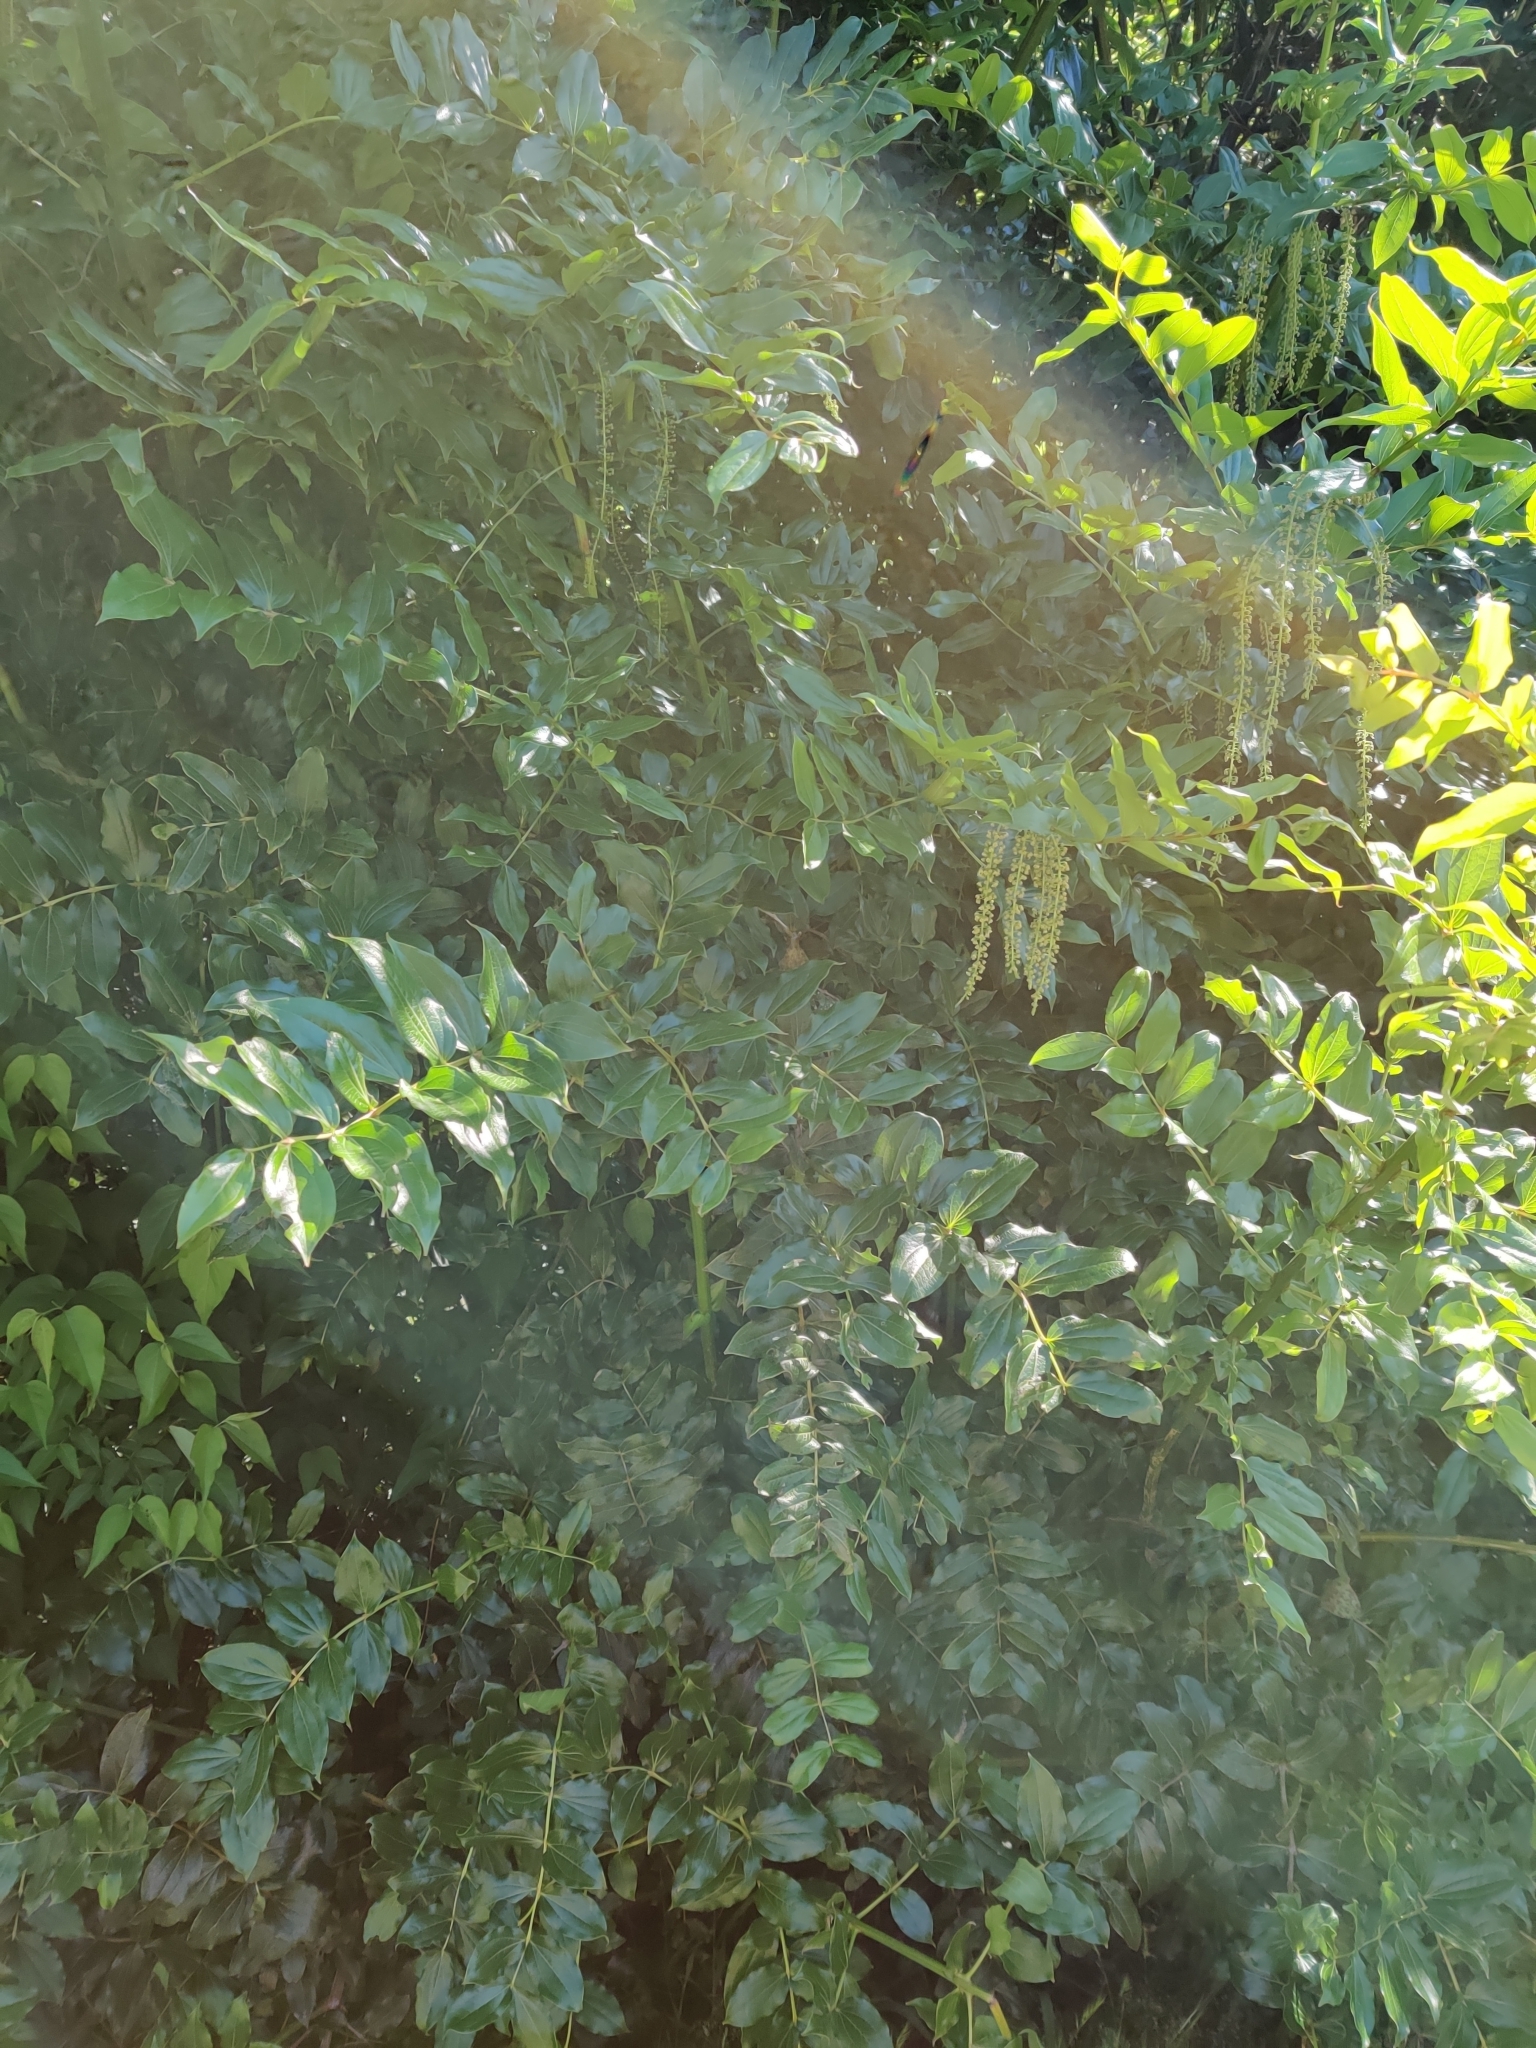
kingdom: Plantae
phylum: Tracheophyta
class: Magnoliopsida
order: Cucurbitales
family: Coriariaceae
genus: Coriaria
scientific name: Coriaria arborea
